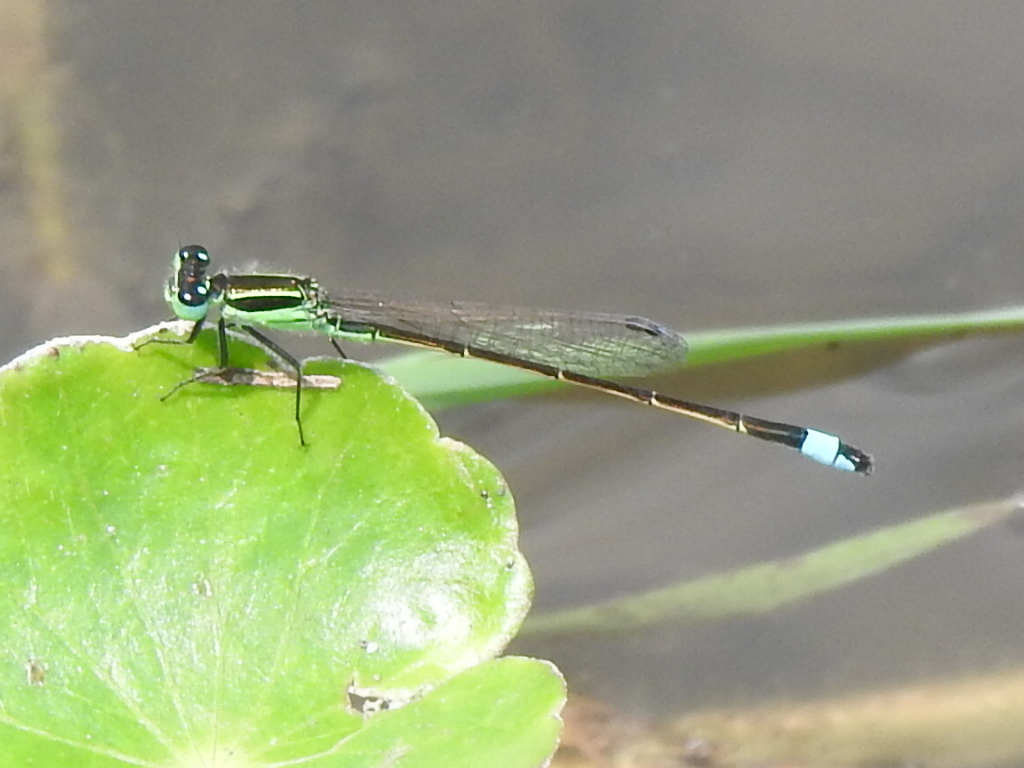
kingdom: Animalia
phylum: Arthropoda
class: Insecta
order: Odonata
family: Coenagrionidae
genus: Ischnura
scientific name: Ischnura ramburii
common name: Rambur's forktail
